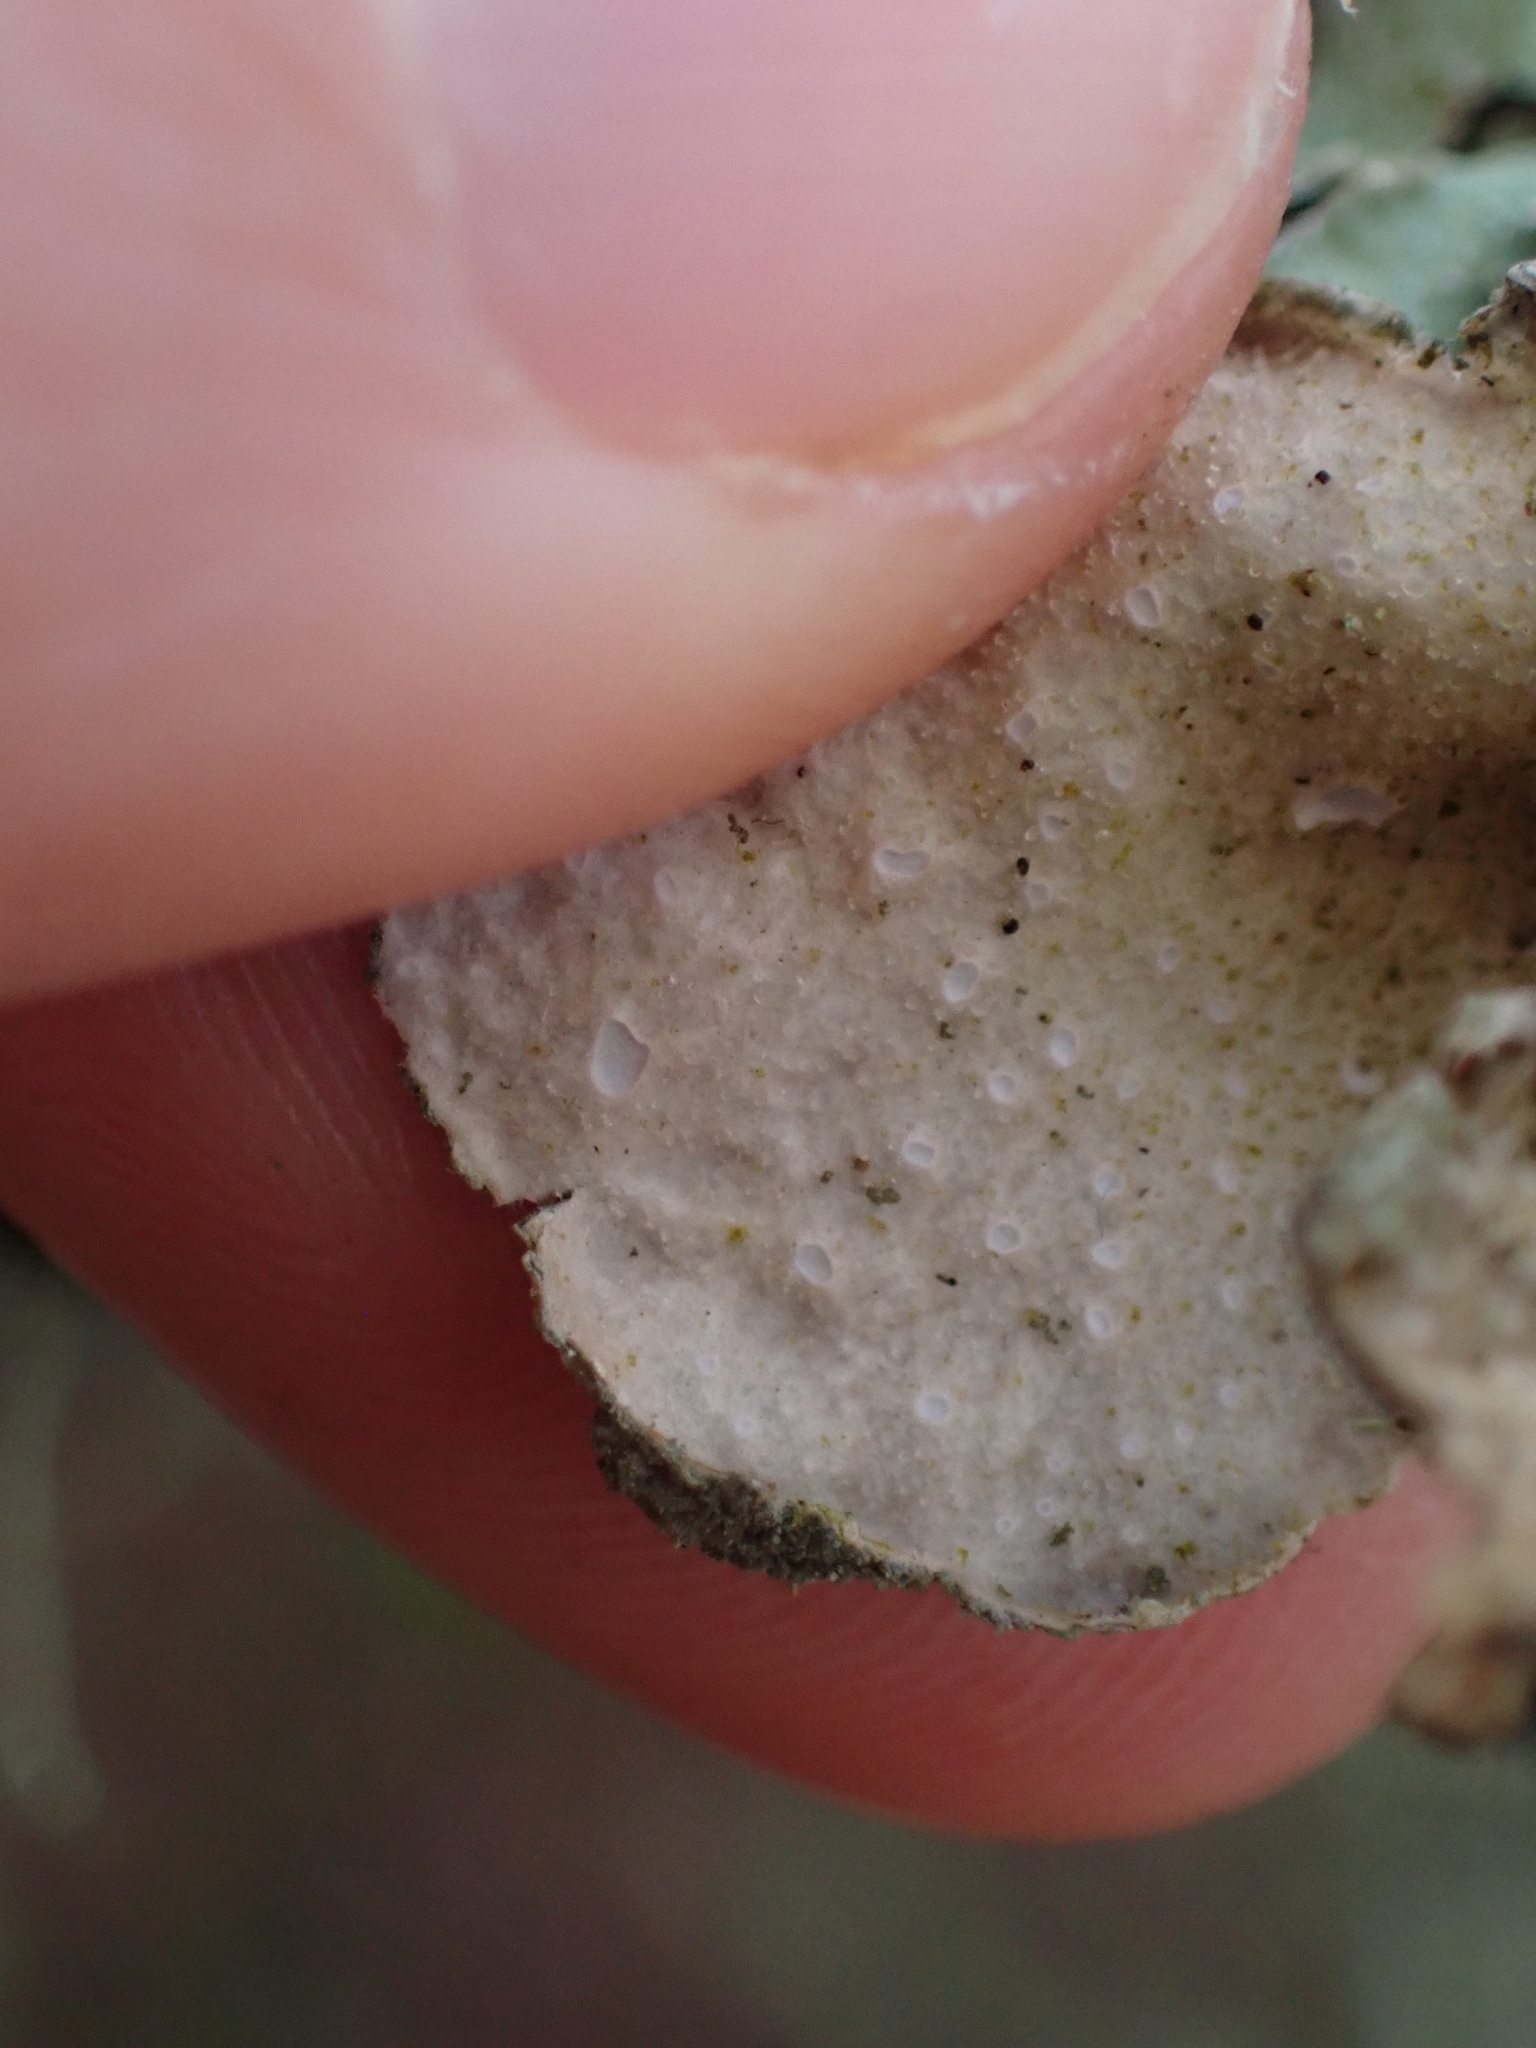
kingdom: Fungi
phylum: Ascomycota
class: Lecanoromycetes
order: Peltigerales
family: Lobariaceae
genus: Sticta
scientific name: Sticta limbata
